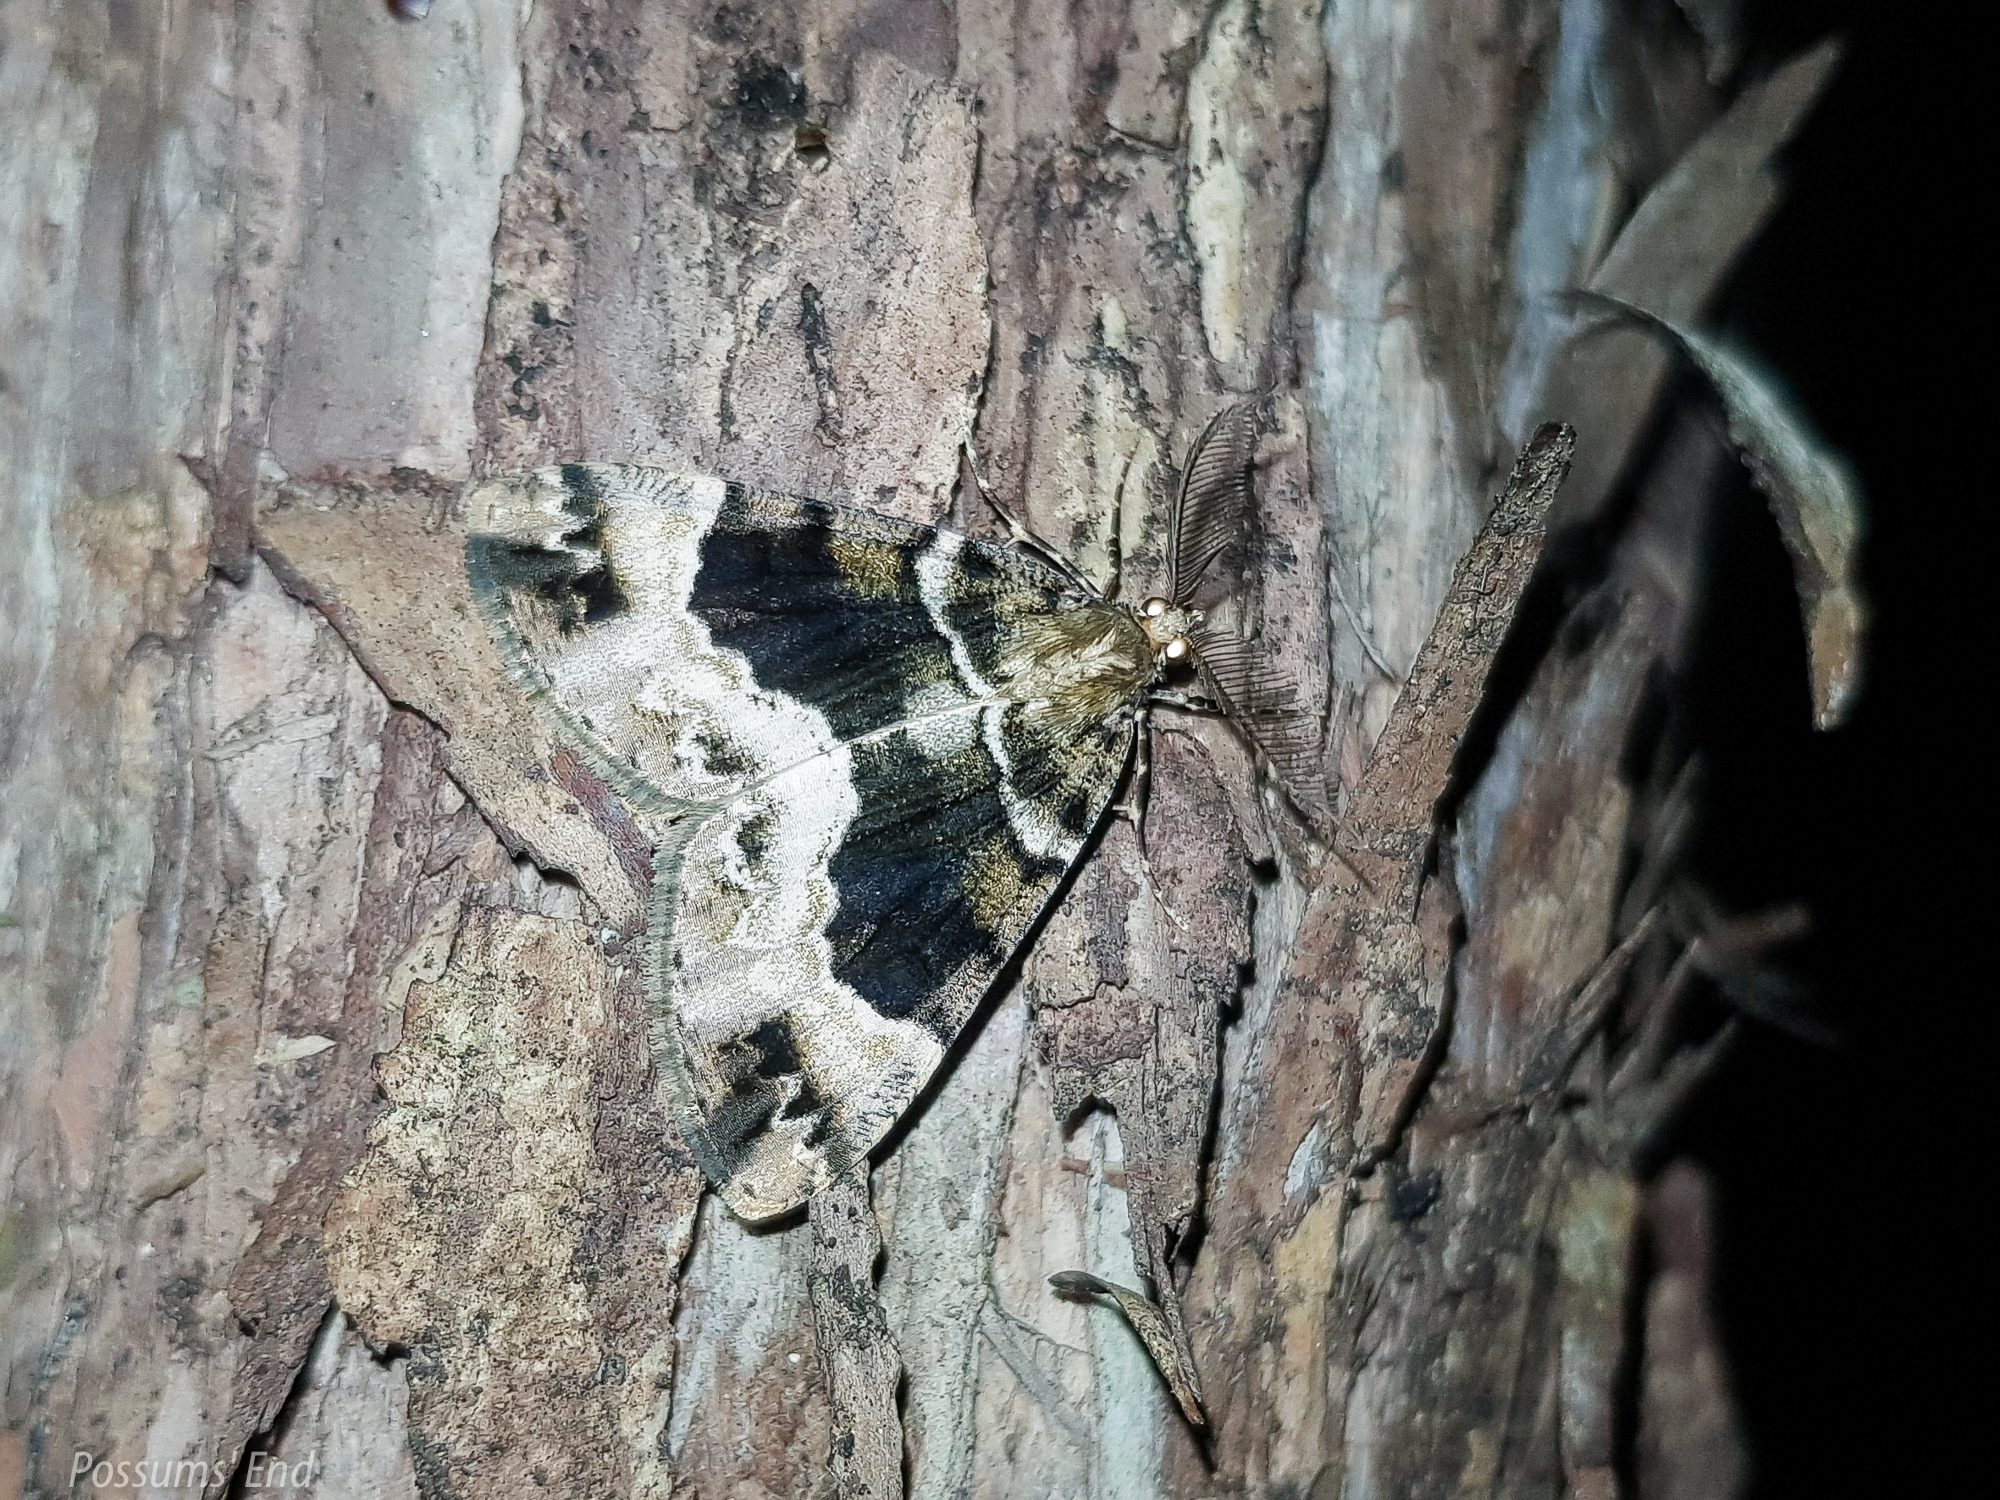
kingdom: Animalia
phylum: Arthropoda
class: Insecta
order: Lepidoptera
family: Geometridae
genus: Pseudocoremia
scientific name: Pseudocoremia productata
